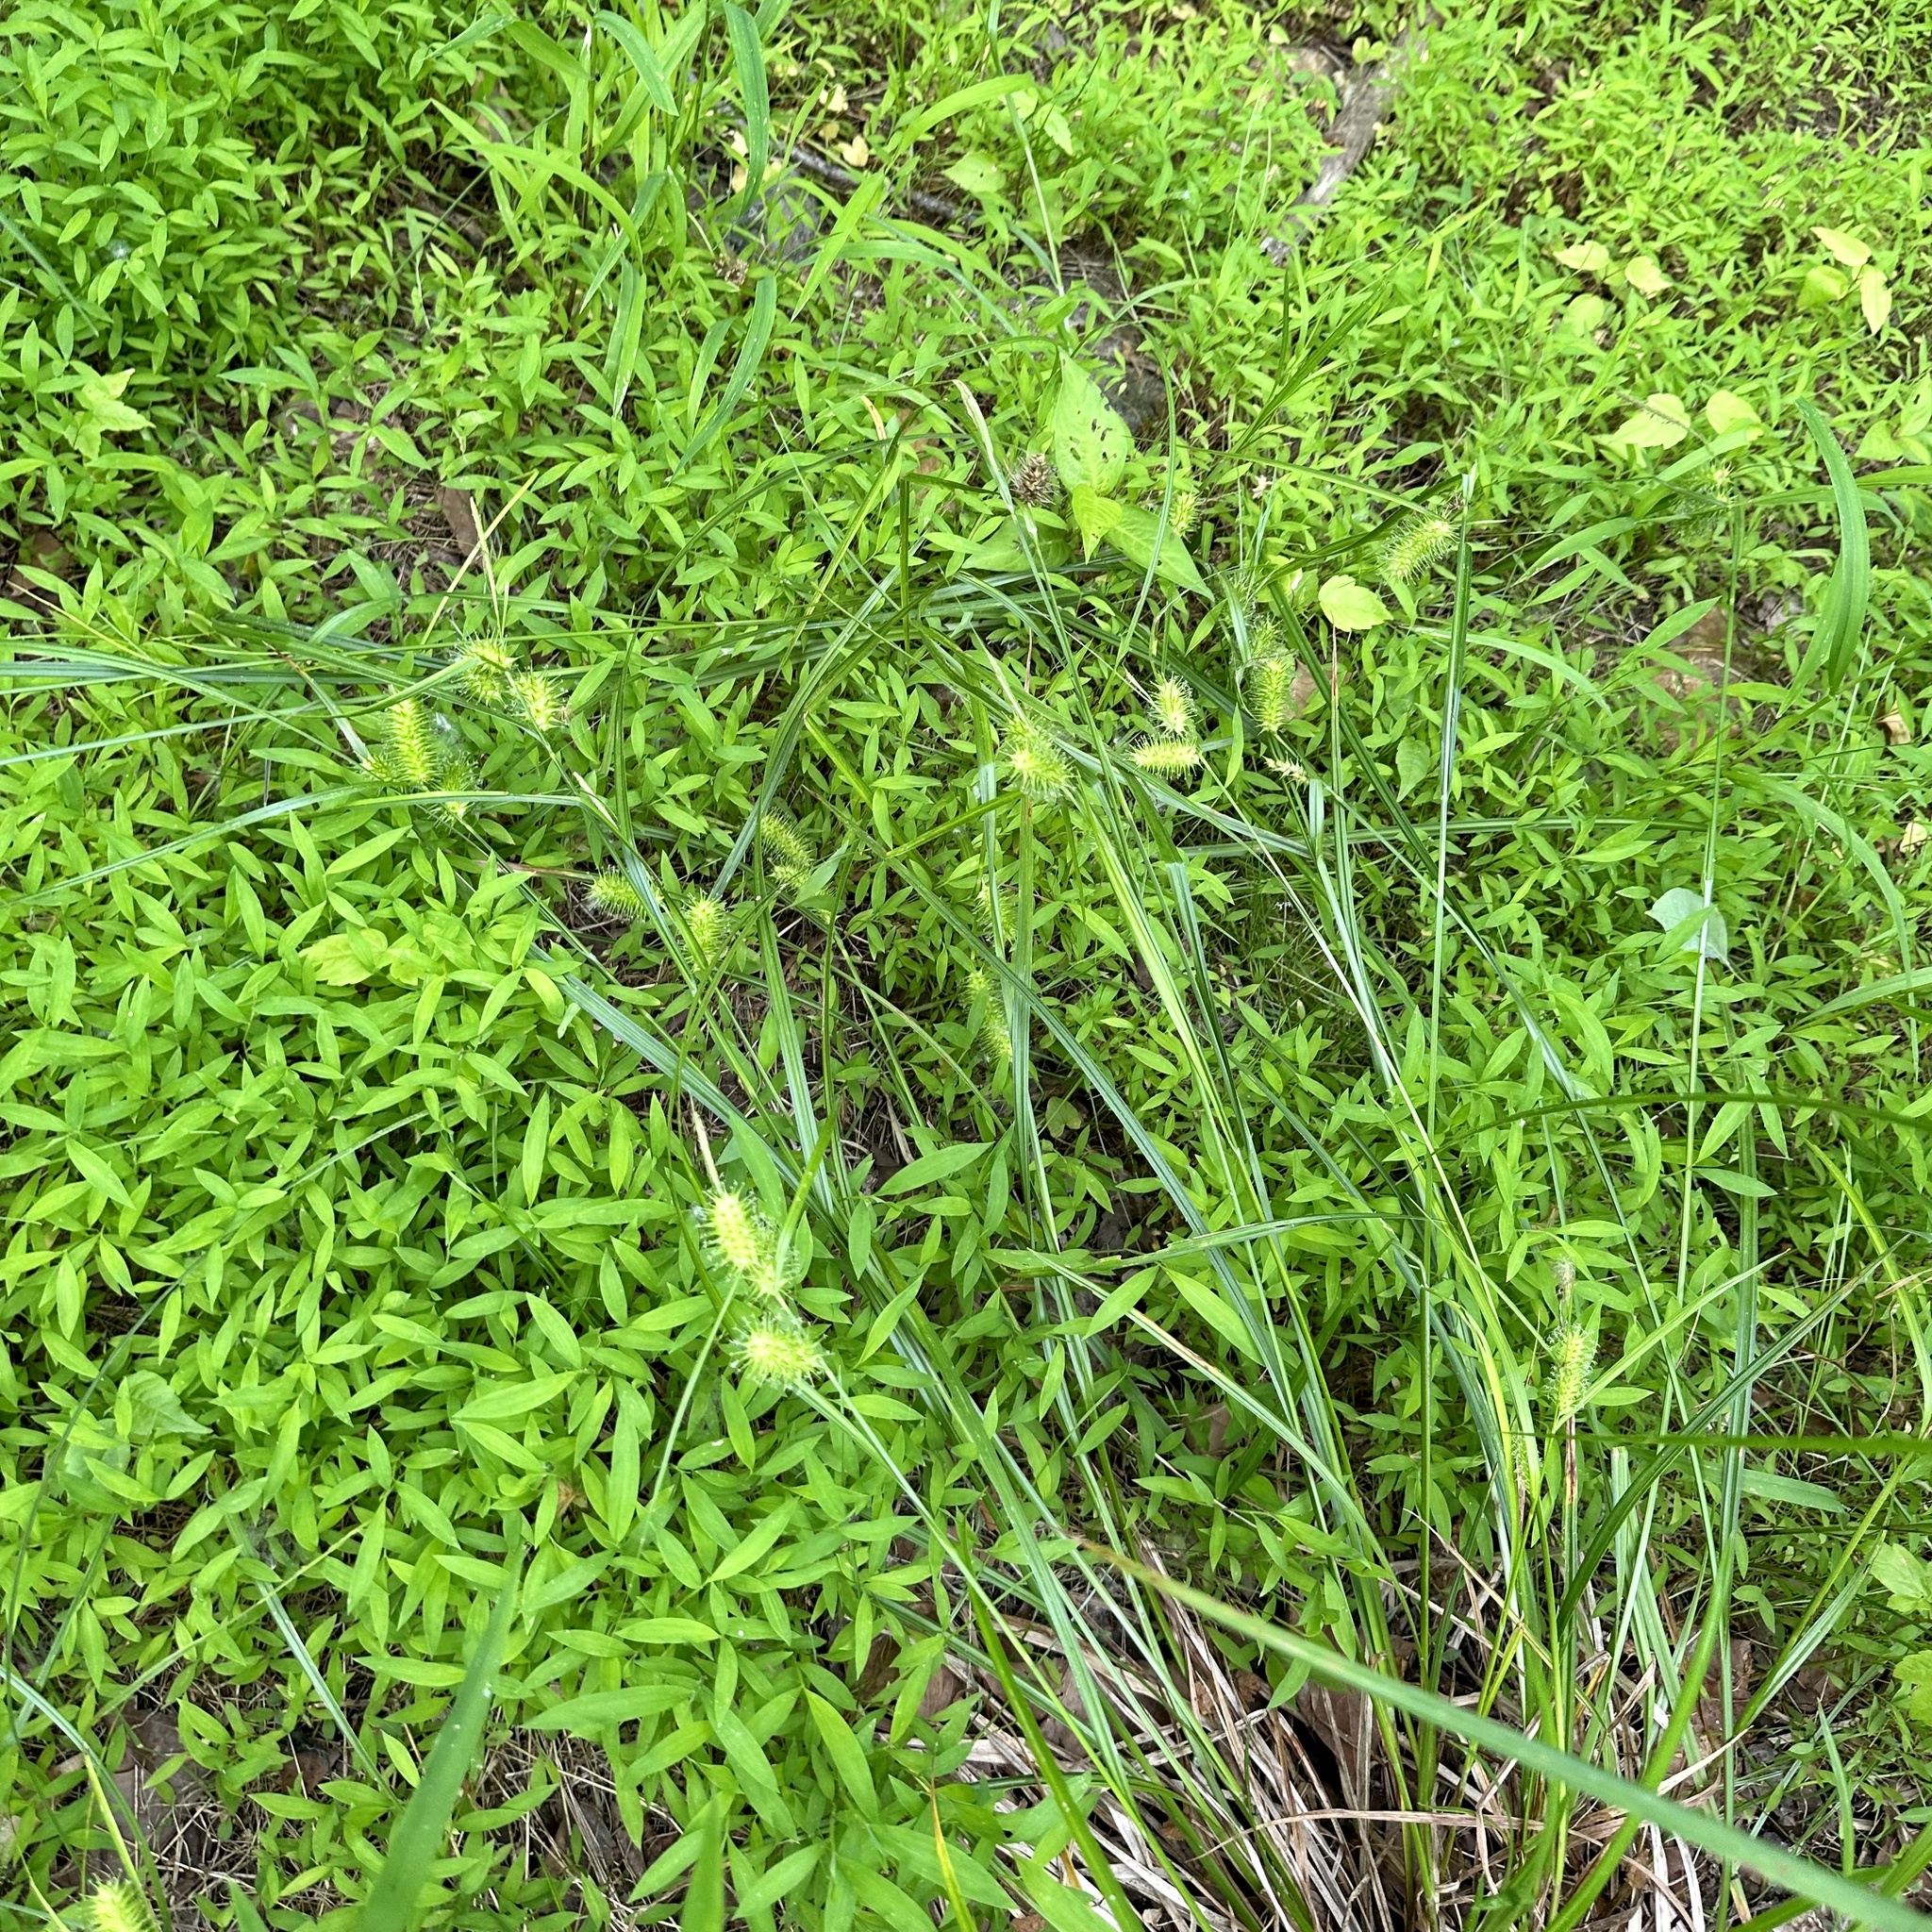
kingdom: Plantae
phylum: Tracheophyta
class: Liliopsida
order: Poales
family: Cyperaceae
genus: Carex
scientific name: Carex lurida
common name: Sallow sedge
